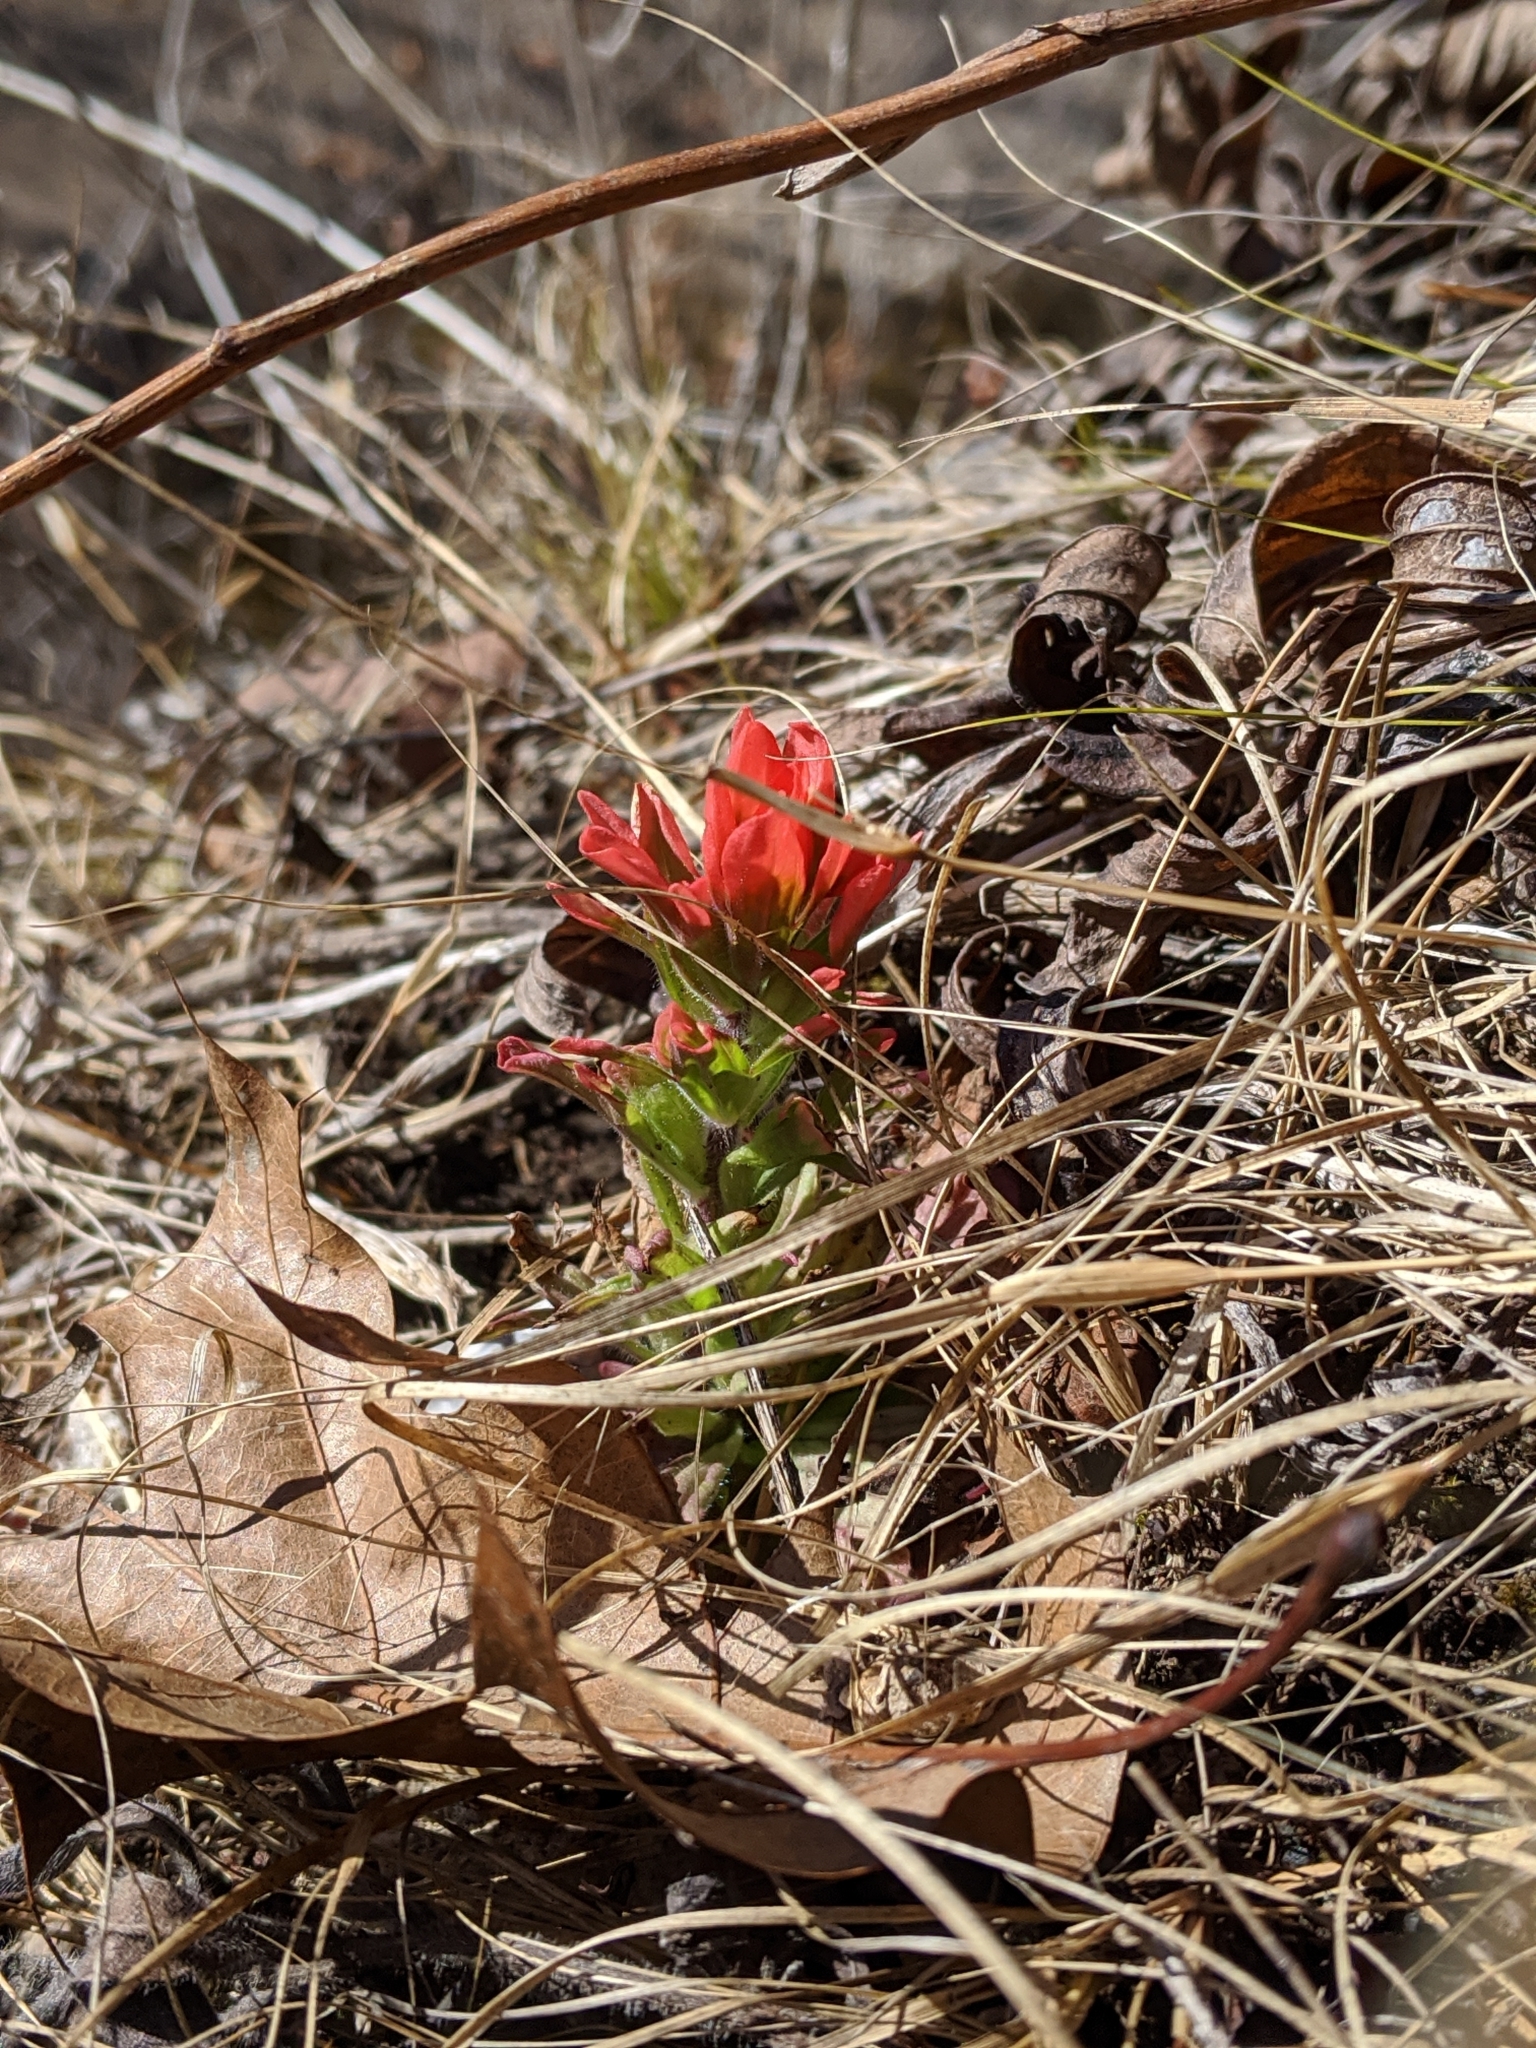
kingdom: Plantae
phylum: Tracheophyta
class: Magnoliopsida
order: Lamiales
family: Orobanchaceae
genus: Castilleja
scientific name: Castilleja coccinea
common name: Scarlet paintbrush
